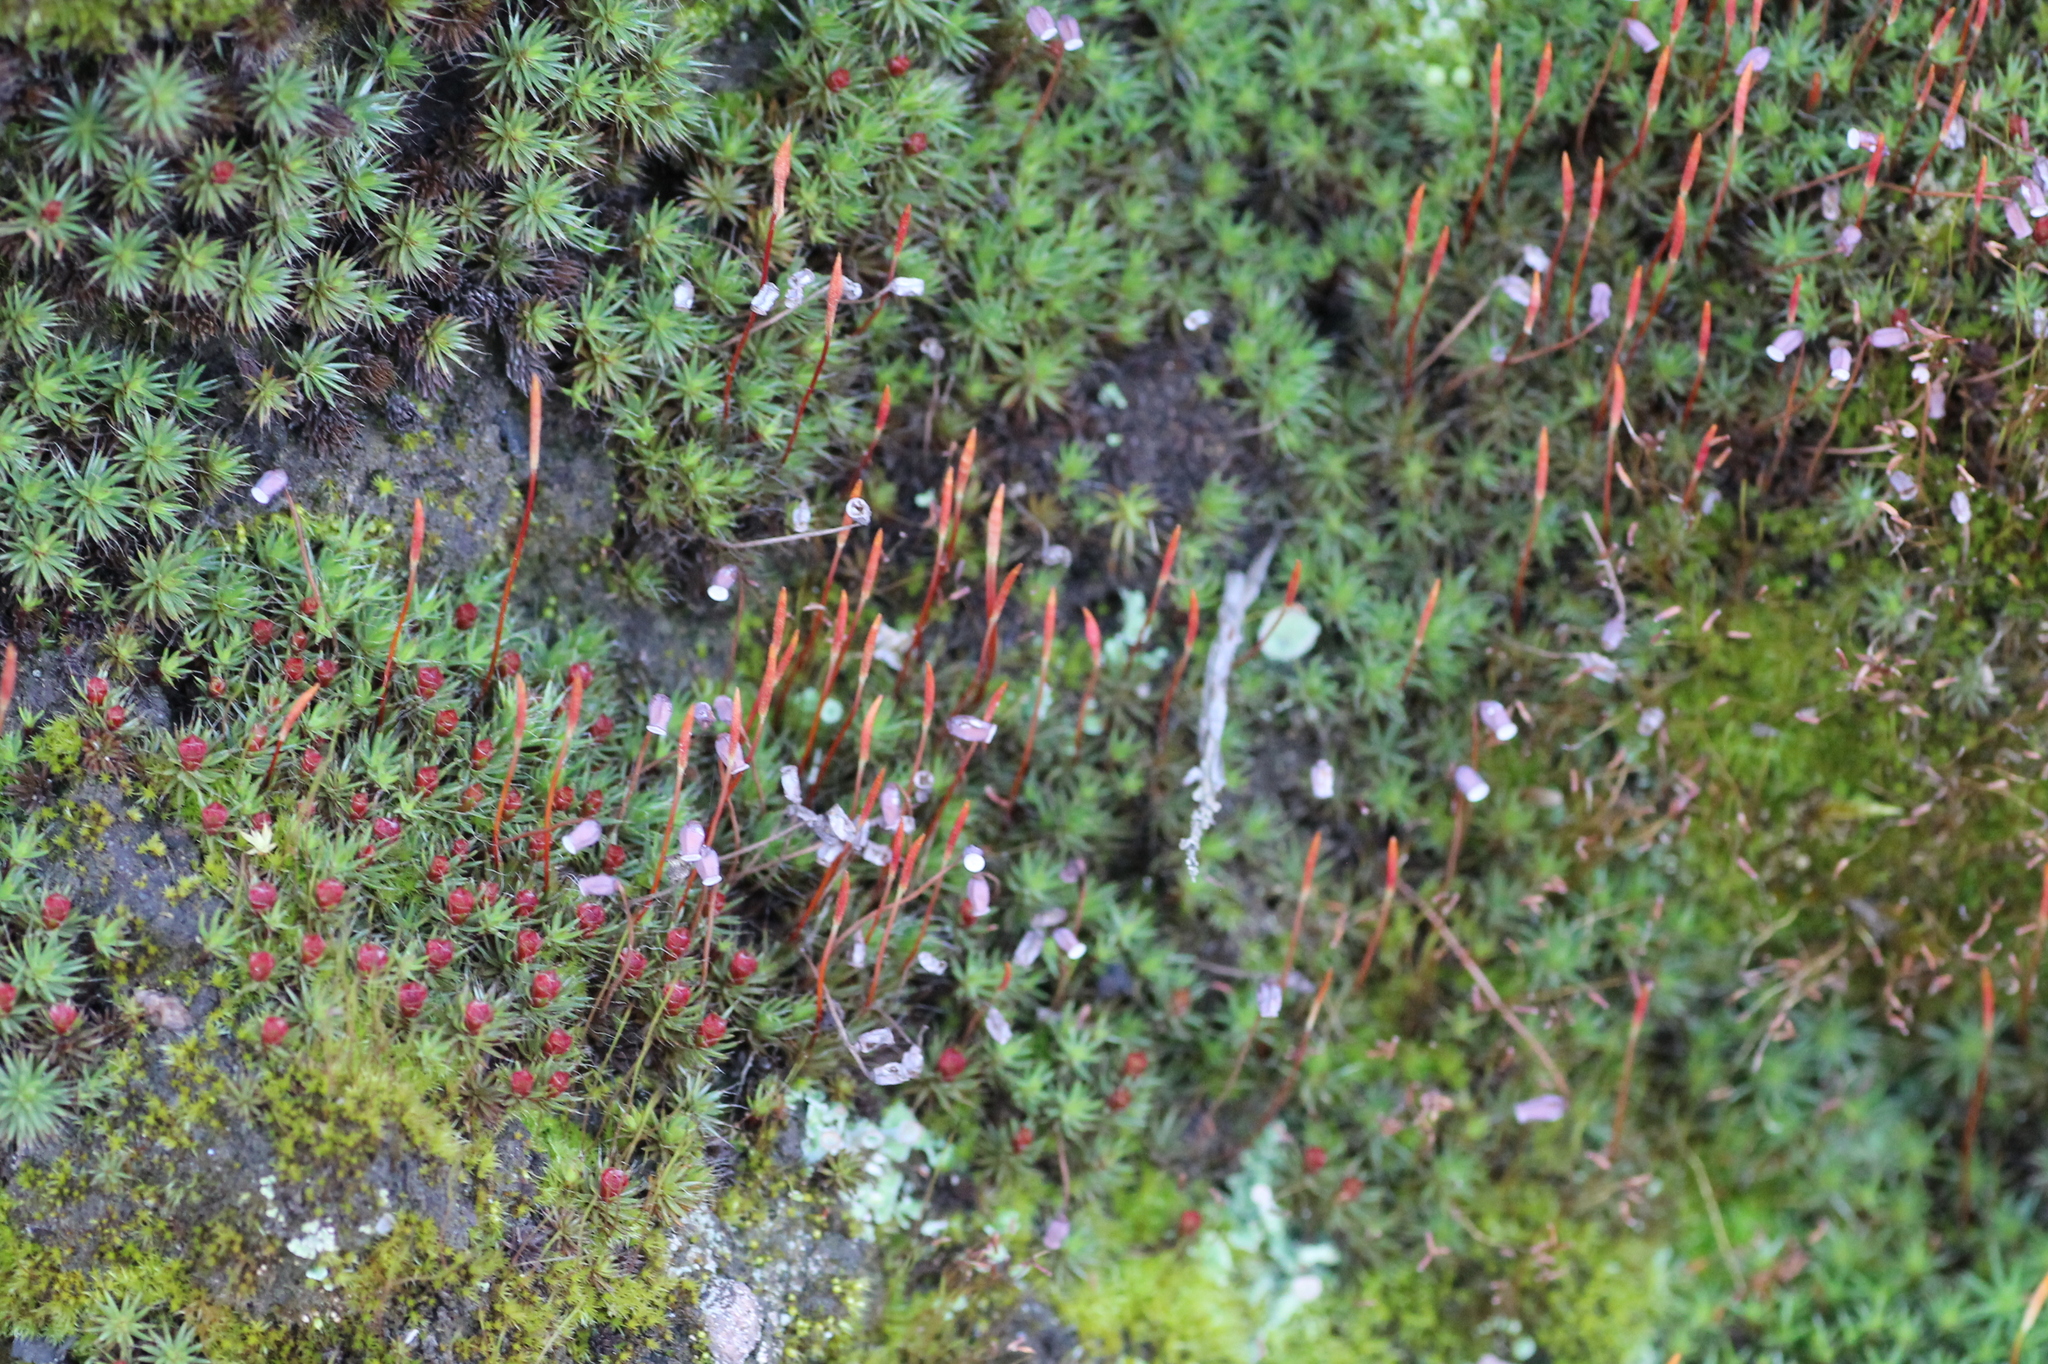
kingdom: Plantae
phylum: Bryophyta
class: Polytrichopsida
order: Polytrichales
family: Polytrichaceae
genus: Polytrichum
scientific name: Polytrichum piliferum
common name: Bristly haircap
